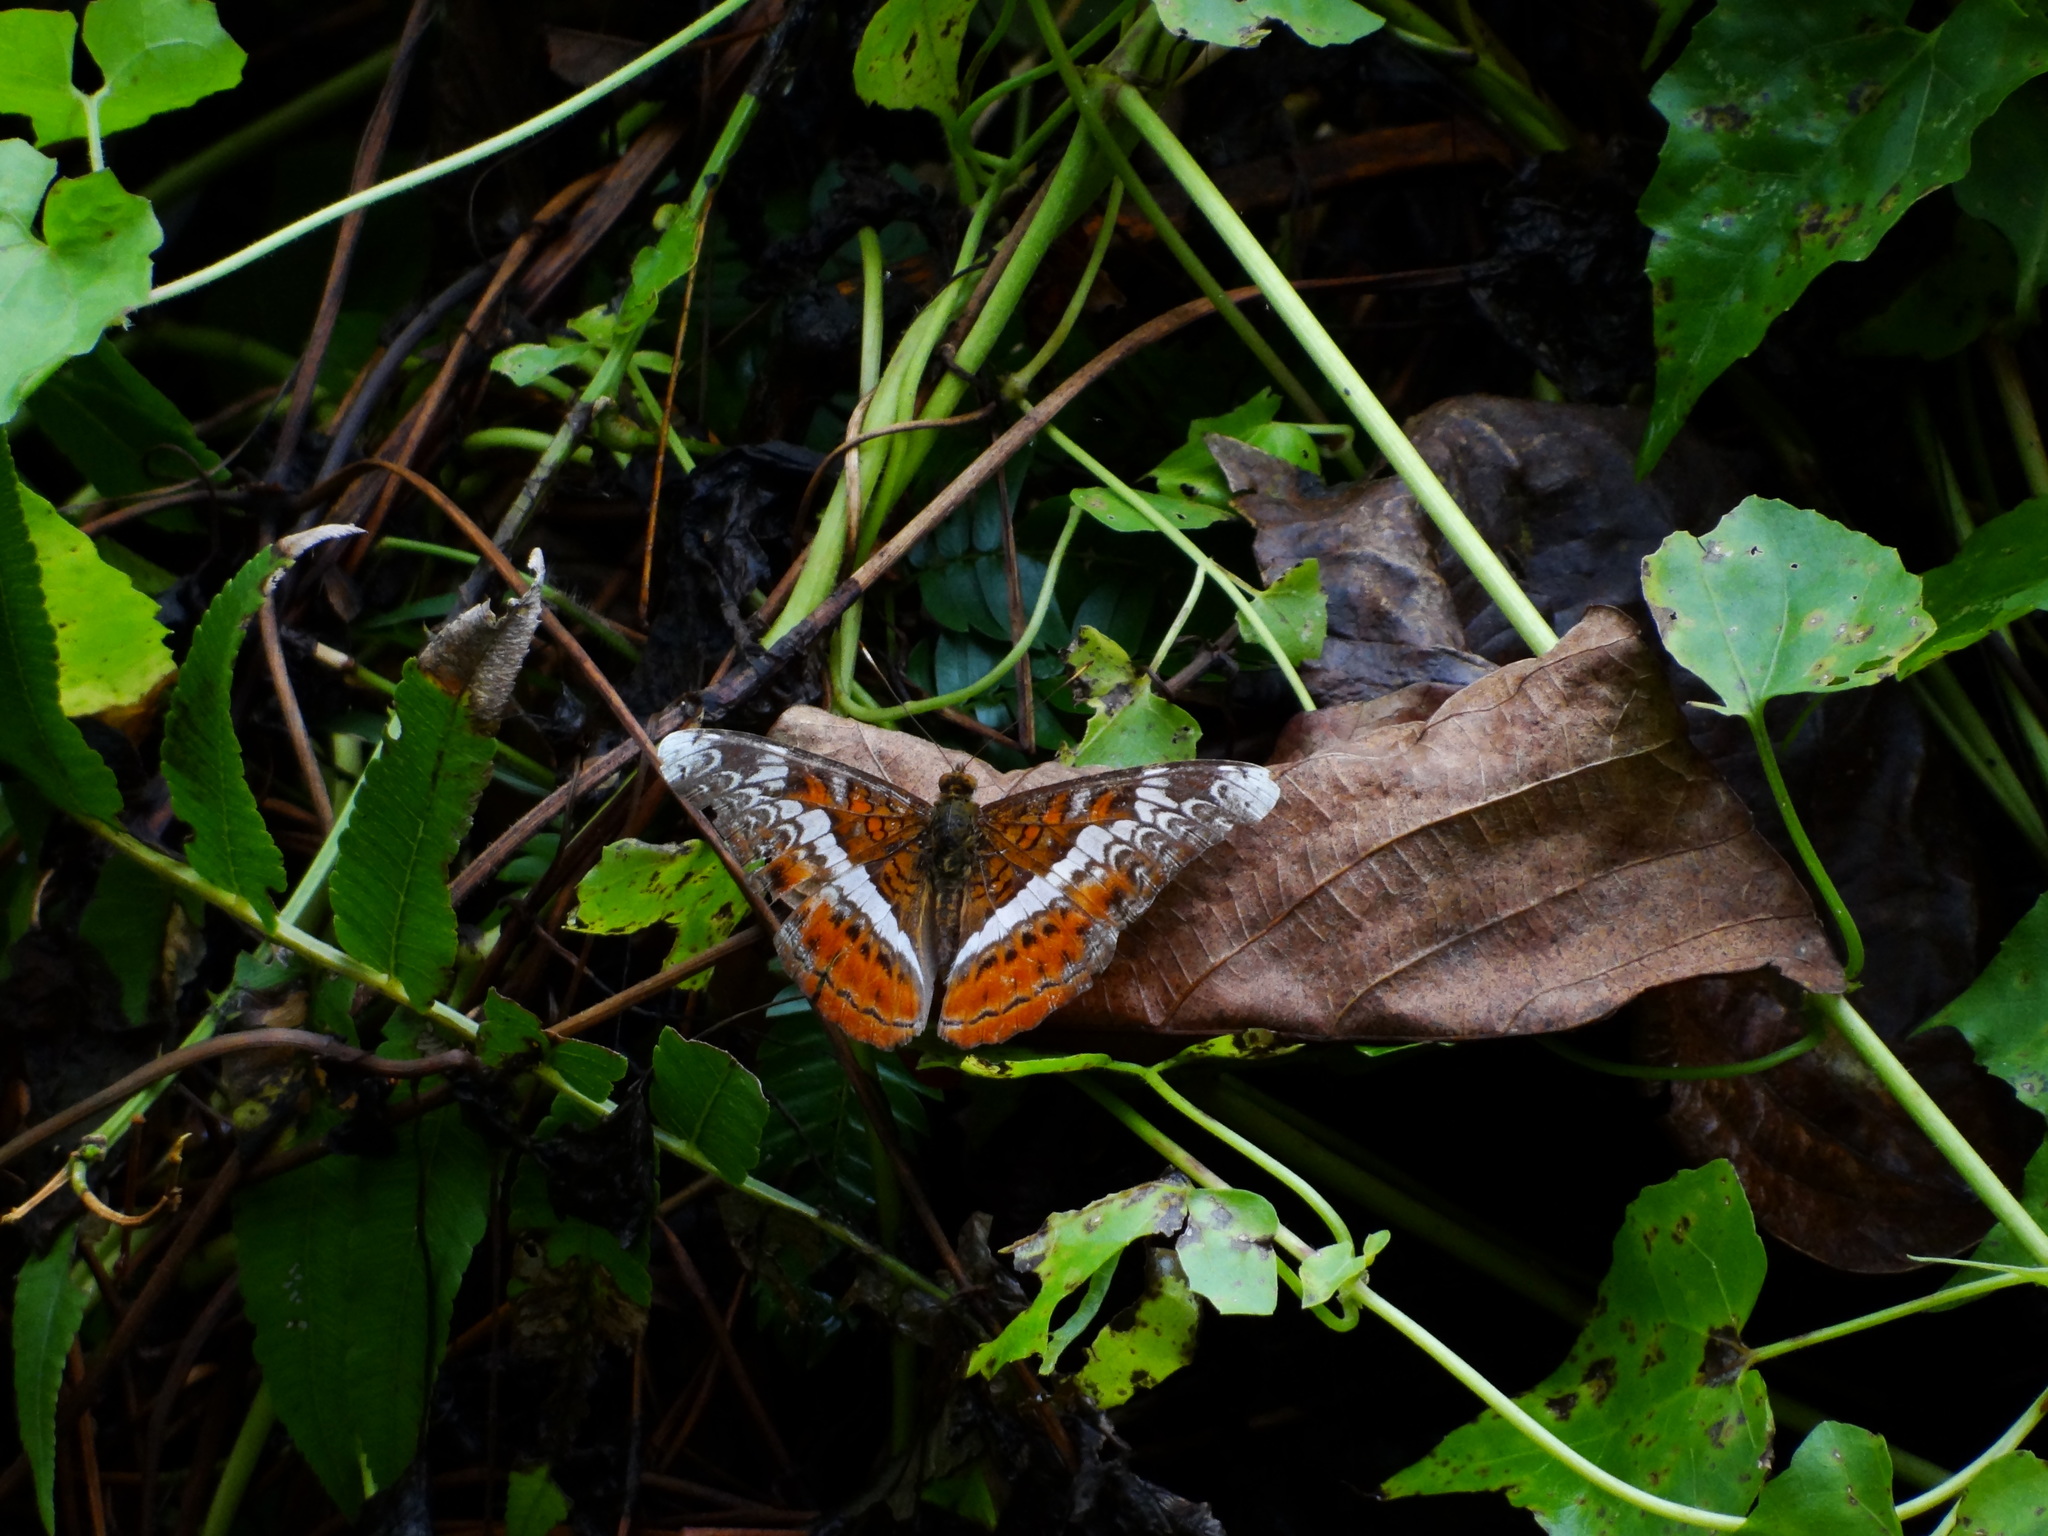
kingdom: Animalia
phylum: Arthropoda
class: Insecta
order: Lepidoptera
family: Nymphalidae
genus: Lebadea
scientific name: Lebadea martha
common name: Knight
